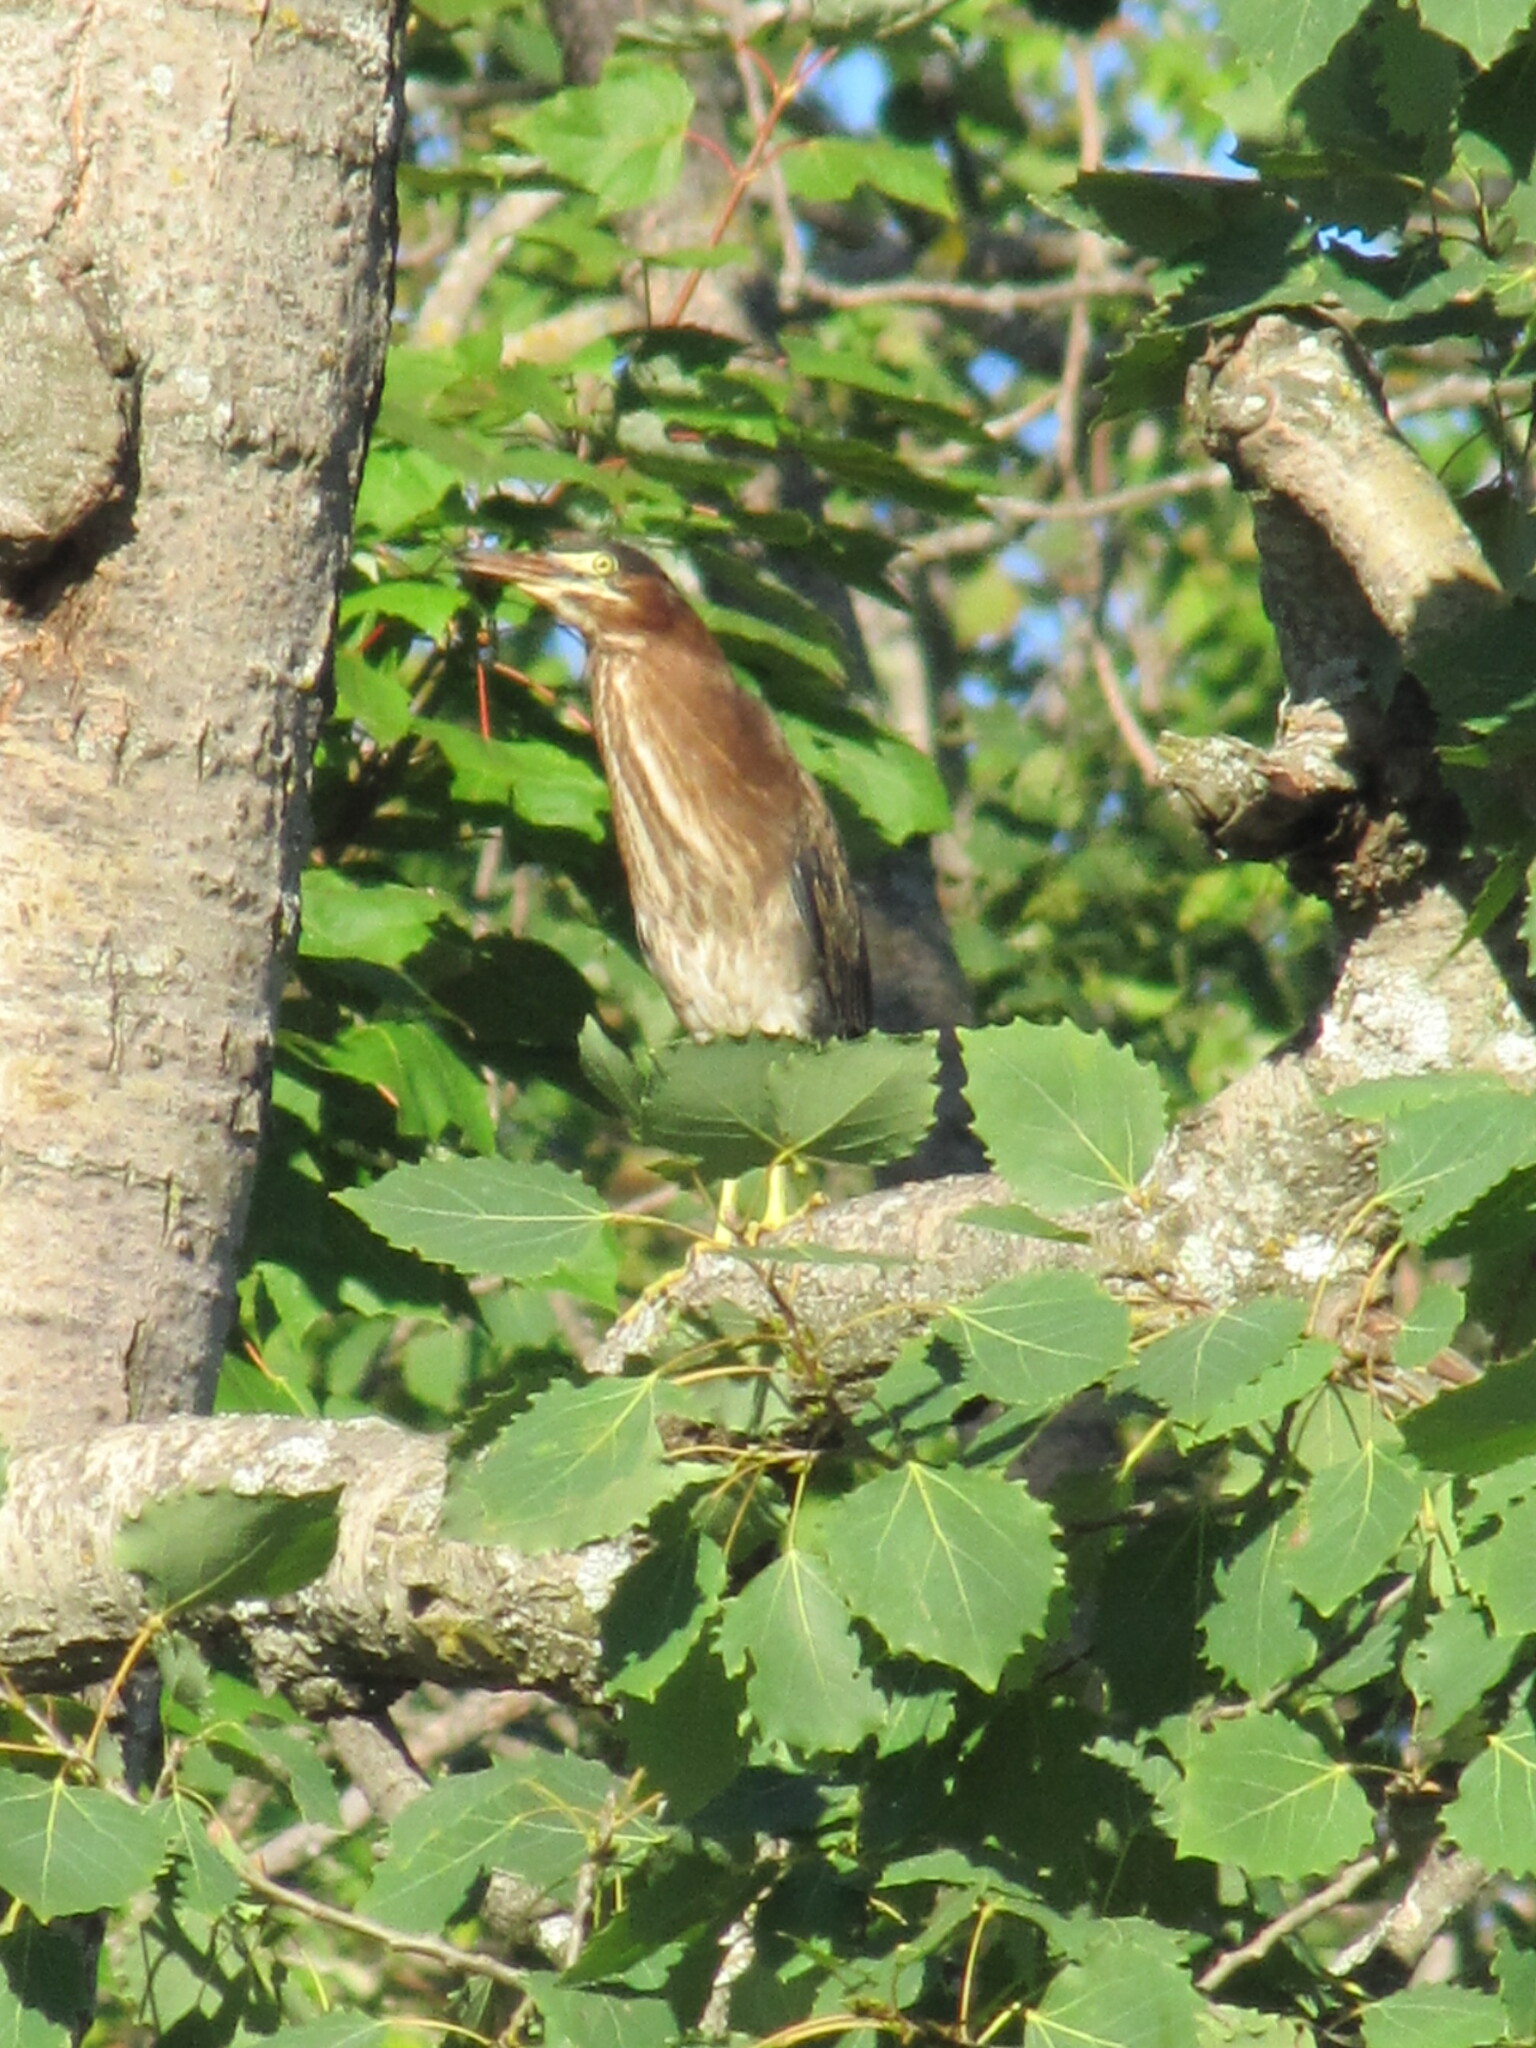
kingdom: Animalia
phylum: Chordata
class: Aves
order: Pelecaniformes
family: Ardeidae
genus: Butorides
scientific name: Butorides virescens
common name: Green heron
